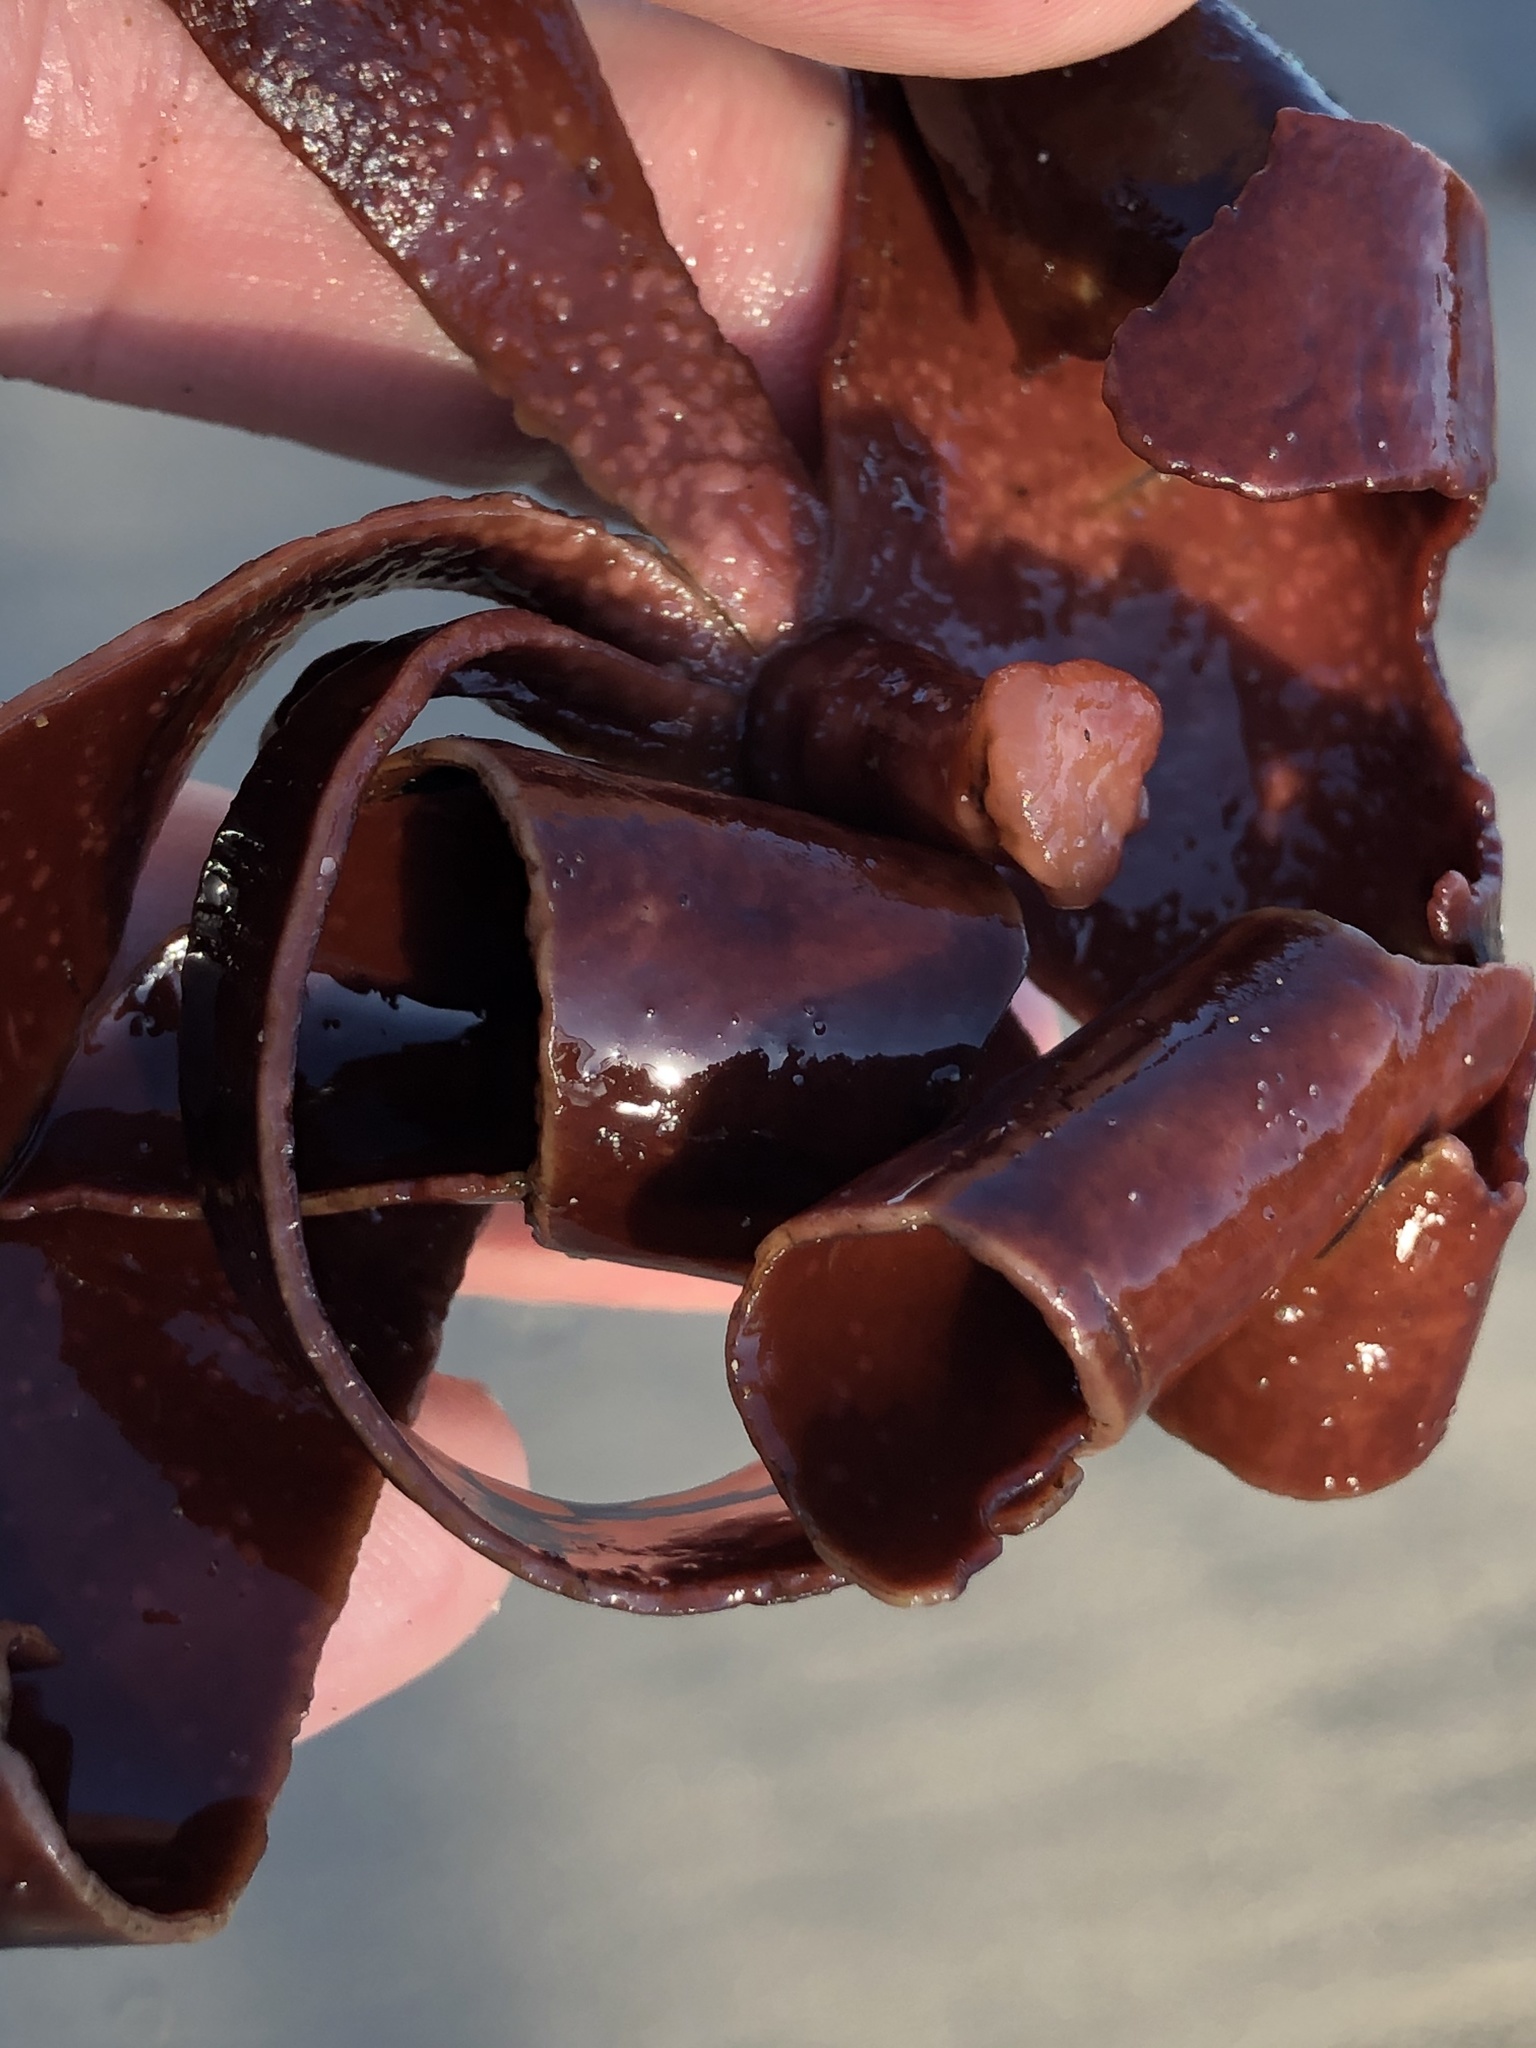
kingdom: Plantae
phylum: Rhodophyta
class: Florideophyceae
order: Gigartinales
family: Dumontiaceae
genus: Constantinea
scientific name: Constantinea rosa-marina
